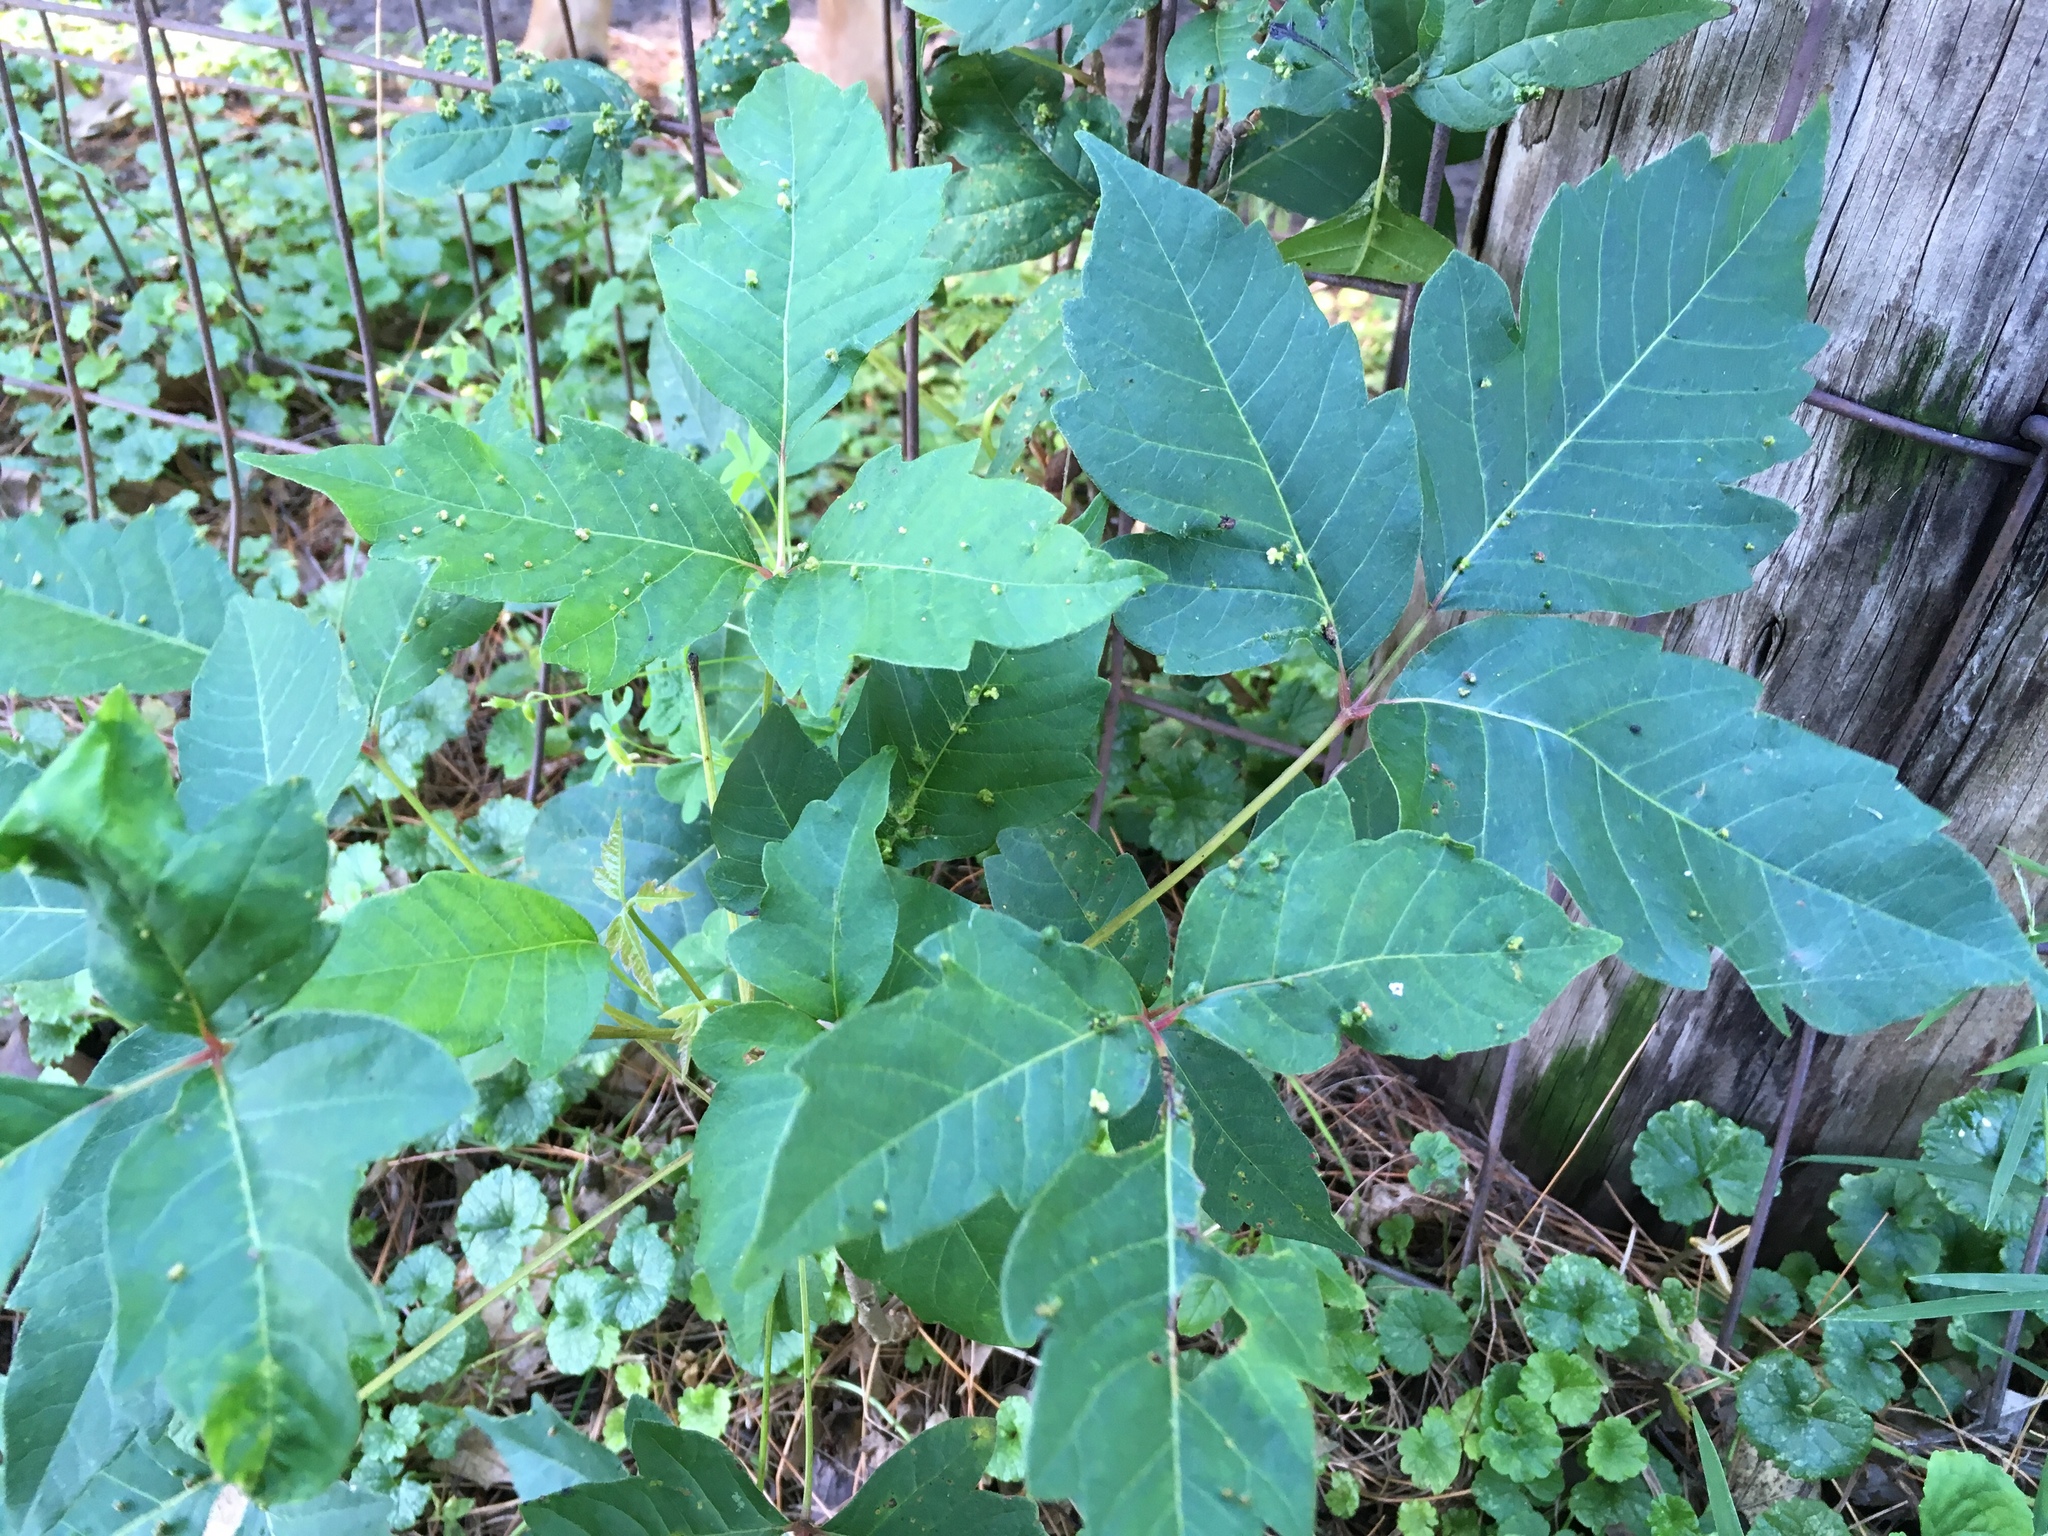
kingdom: Plantae
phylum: Tracheophyta
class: Magnoliopsida
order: Sapindales
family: Anacardiaceae
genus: Toxicodendron
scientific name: Toxicodendron radicans
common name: Poison ivy
